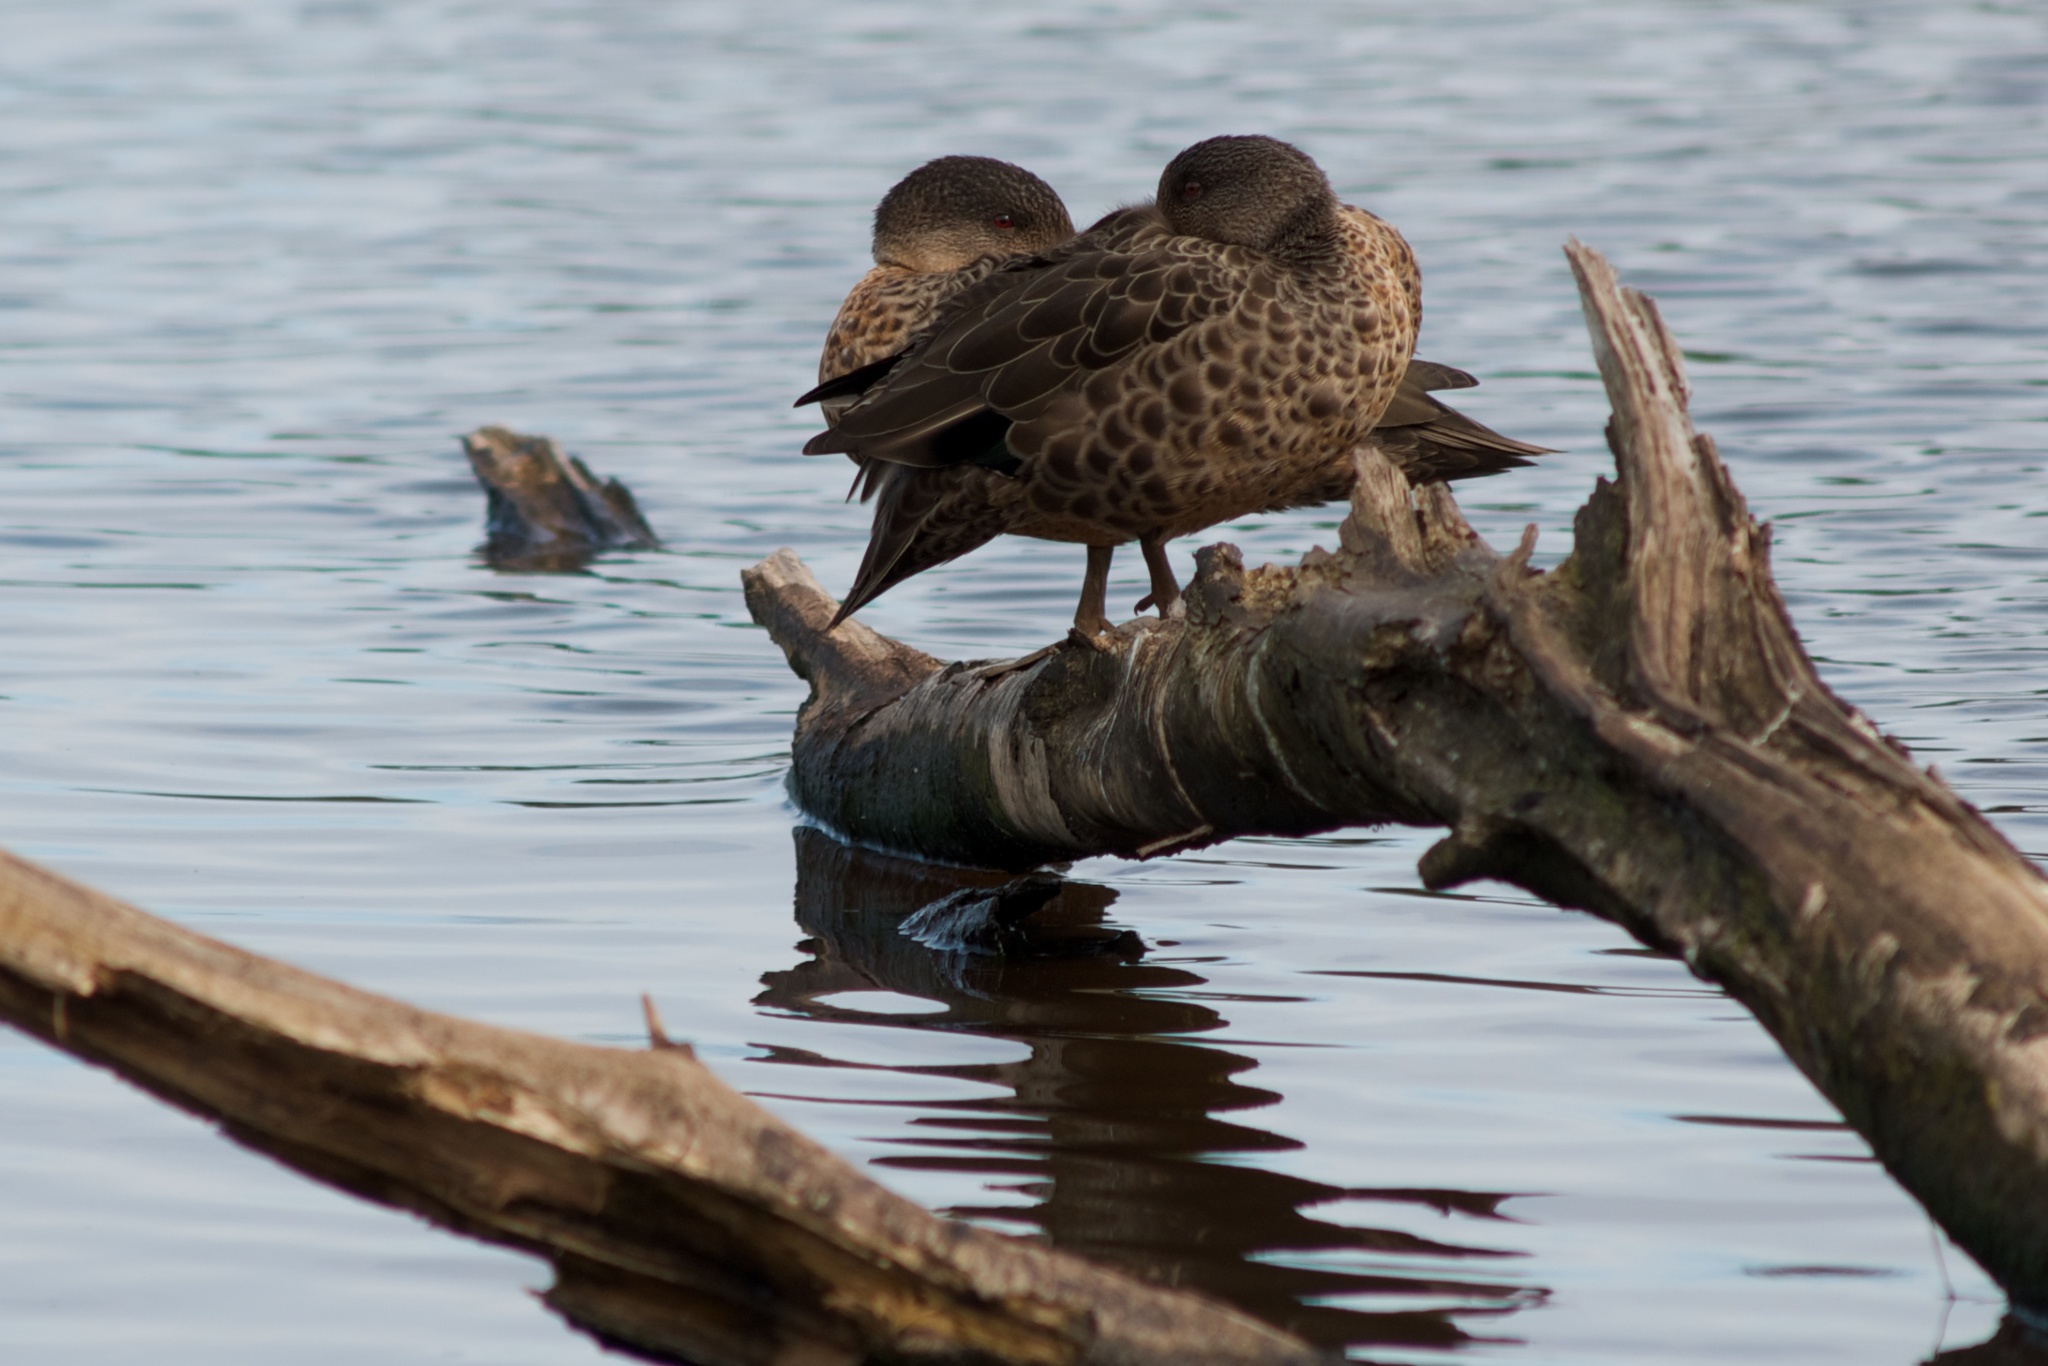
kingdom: Animalia
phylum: Chordata
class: Aves
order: Anseriformes
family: Anatidae
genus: Anas
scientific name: Anas gracilis
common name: Grey teal
